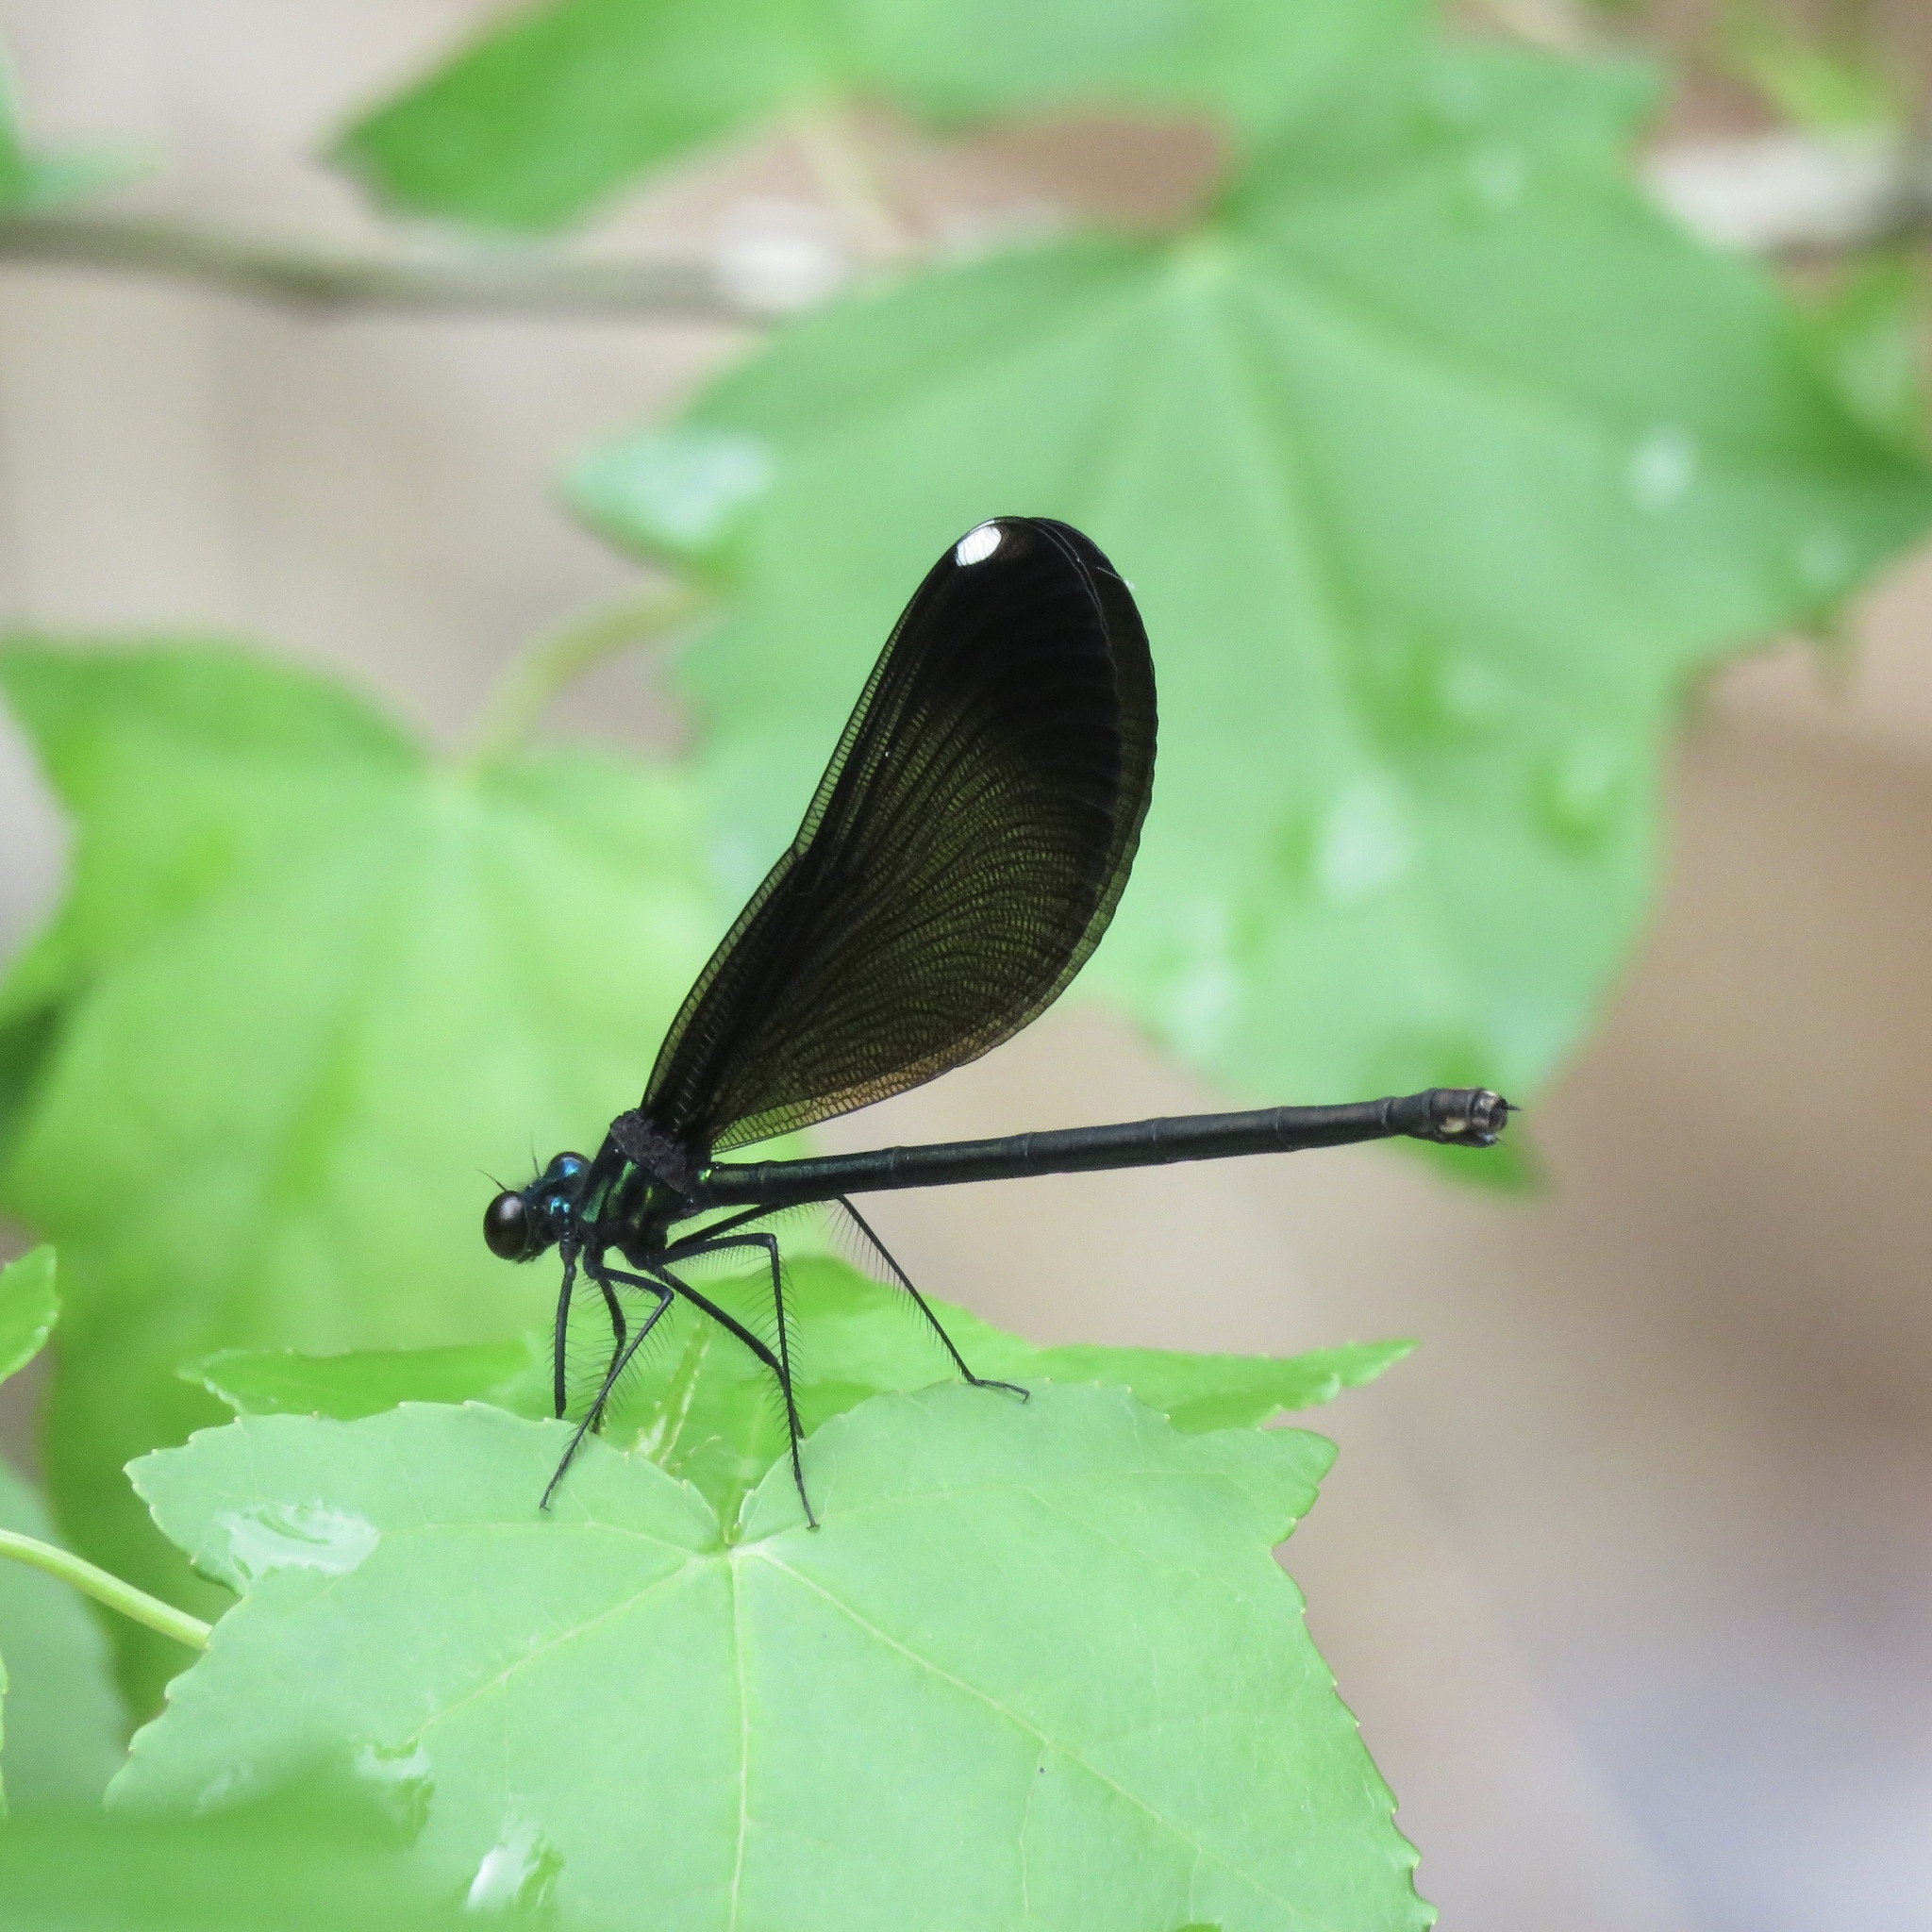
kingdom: Animalia
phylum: Arthropoda
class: Insecta
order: Odonata
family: Calopterygidae
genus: Calopteryx
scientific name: Calopteryx maculata
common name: Ebony jewelwing
